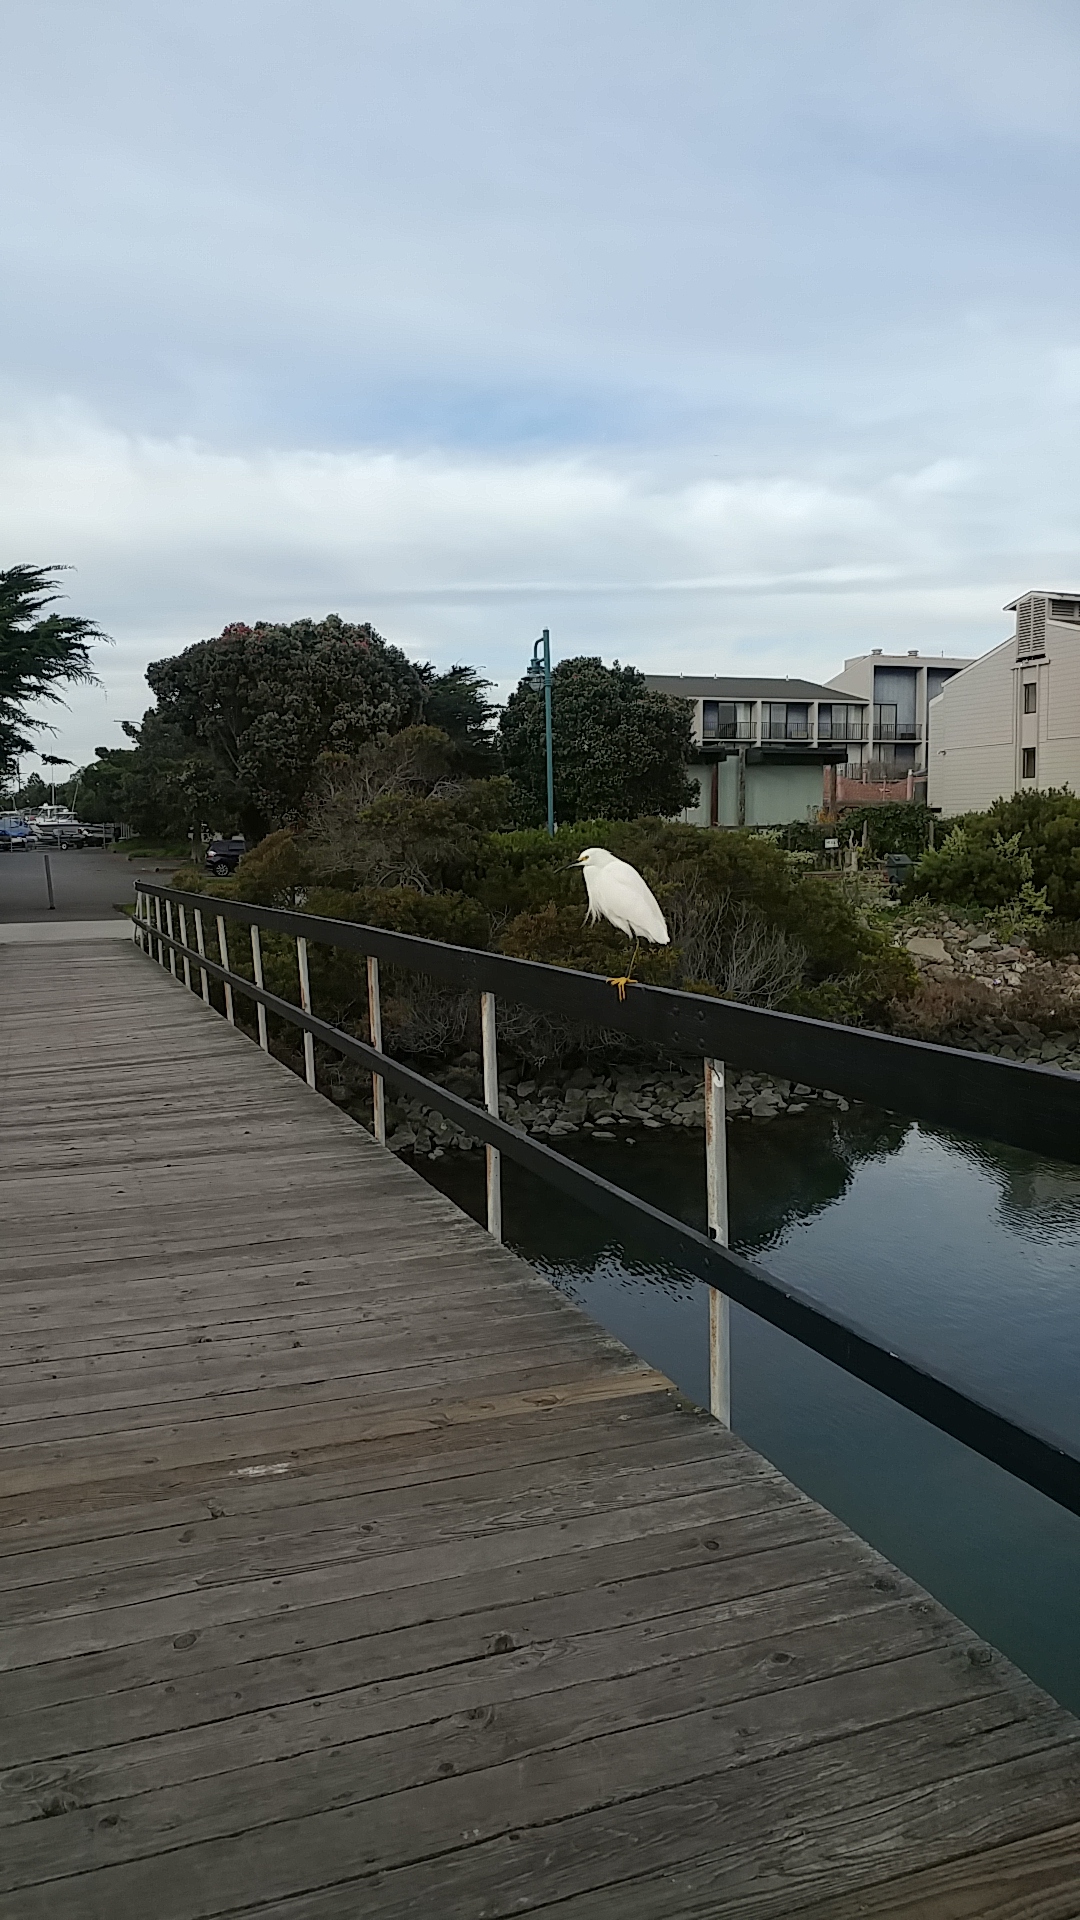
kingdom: Animalia
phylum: Chordata
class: Aves
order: Pelecaniformes
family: Ardeidae
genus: Egretta
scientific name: Egretta thula
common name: Snowy egret
